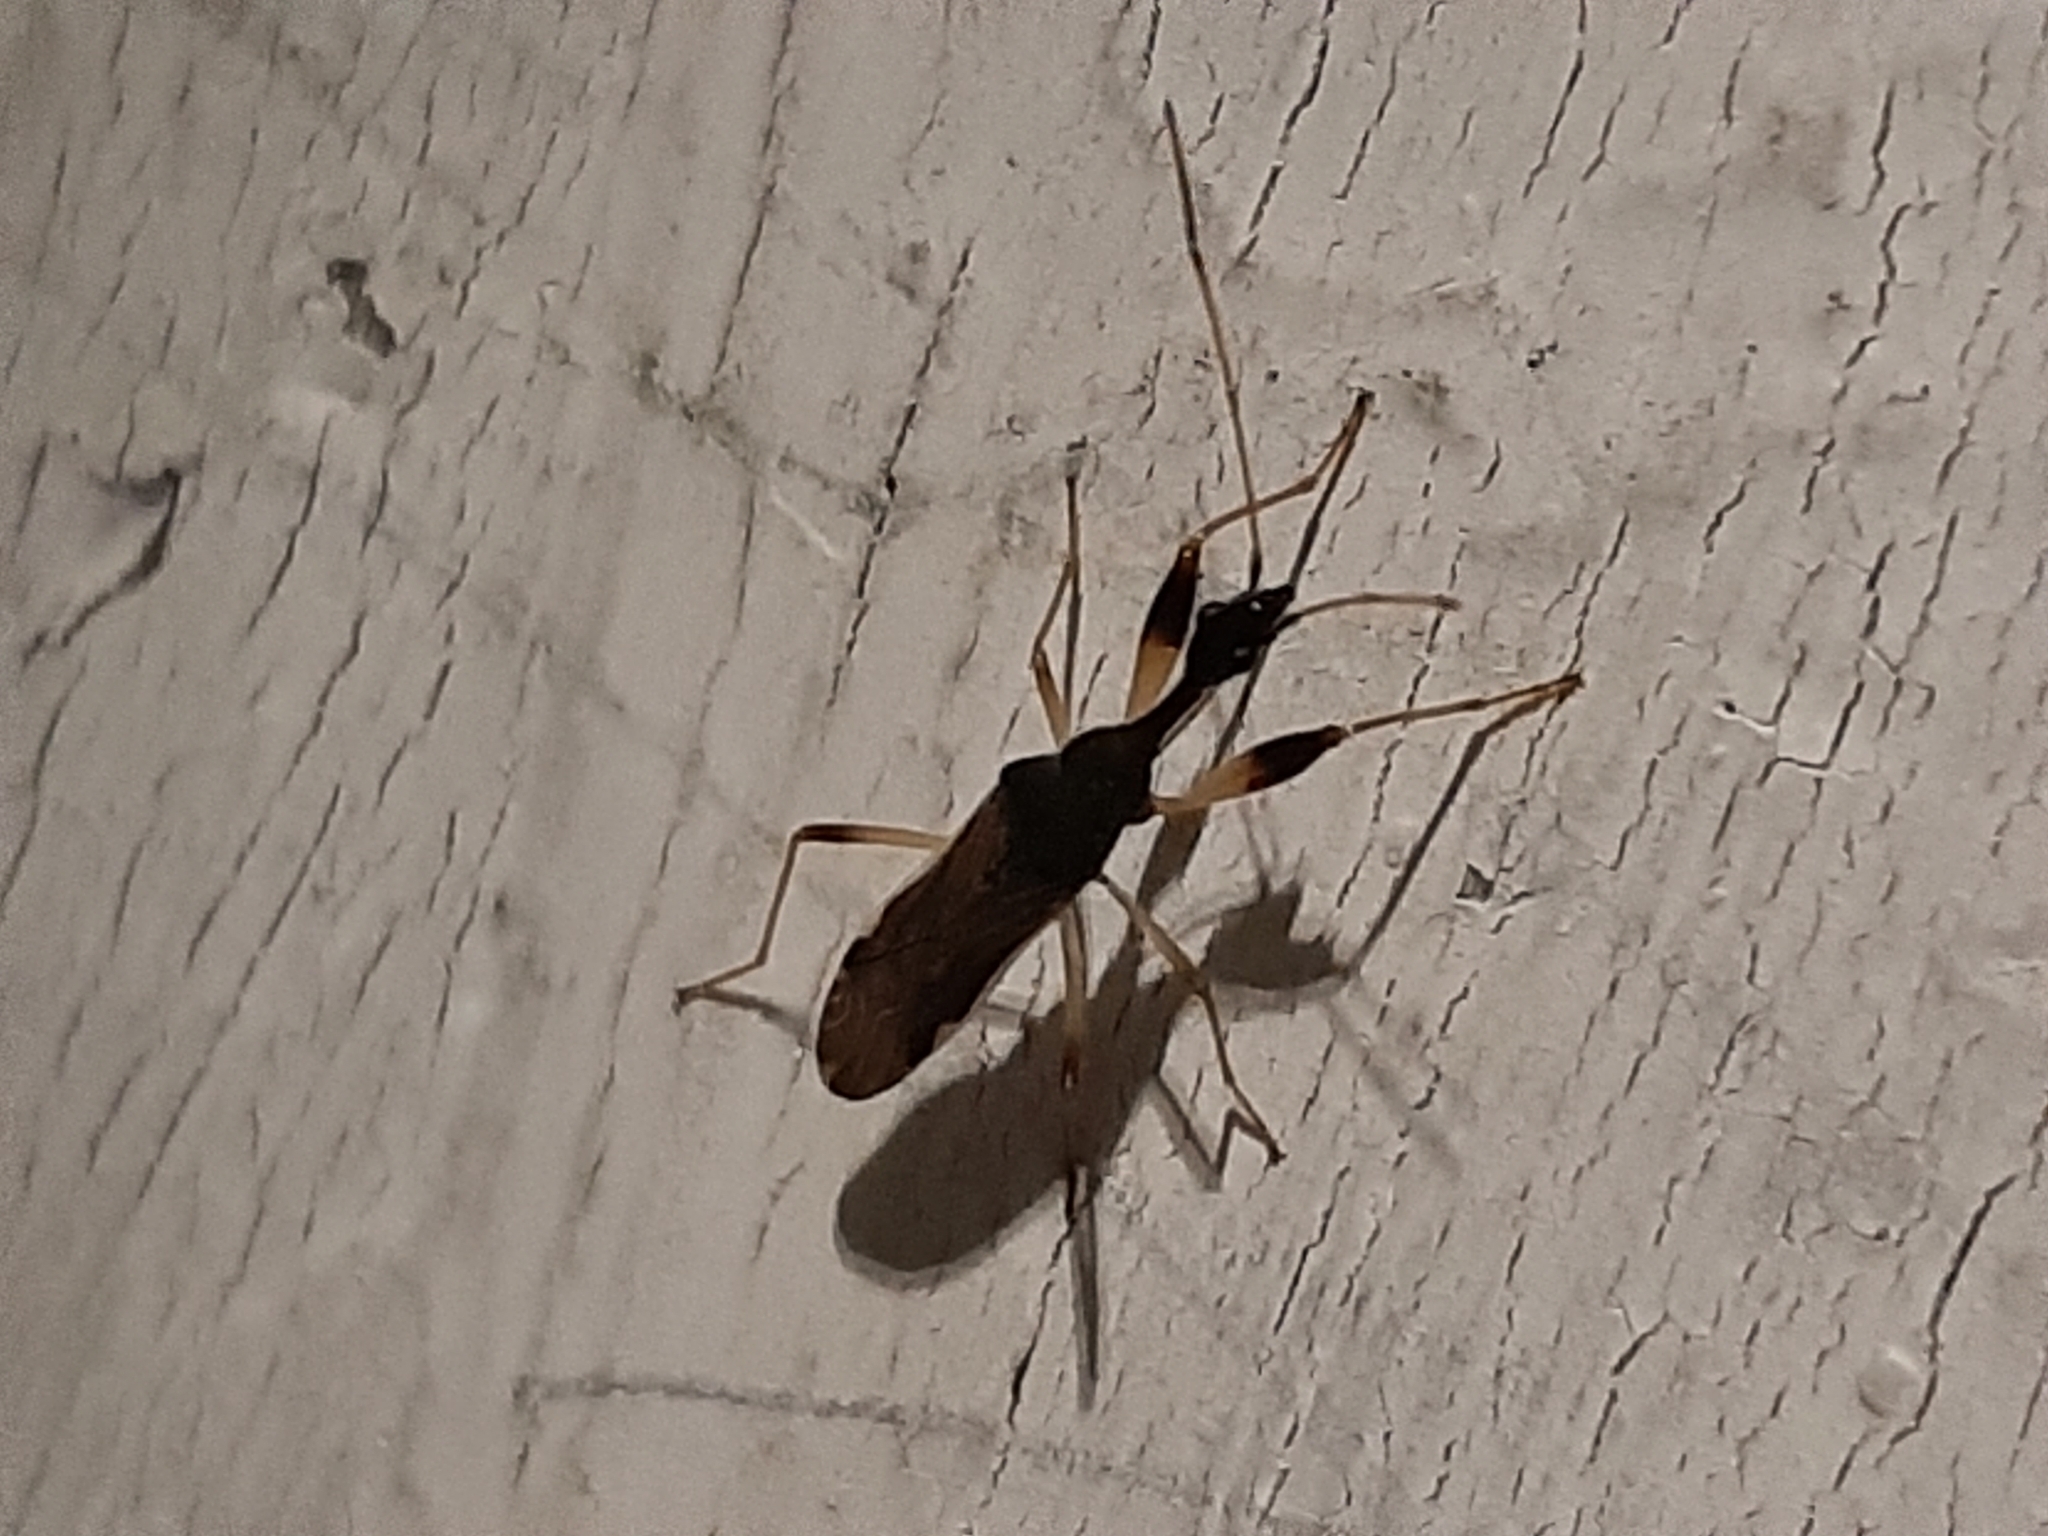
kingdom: Animalia
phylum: Arthropoda
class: Insecta
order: Hemiptera
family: Rhyparochromidae
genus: Myodocha
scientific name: Myodocha serripes
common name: Long-necked seed bug
